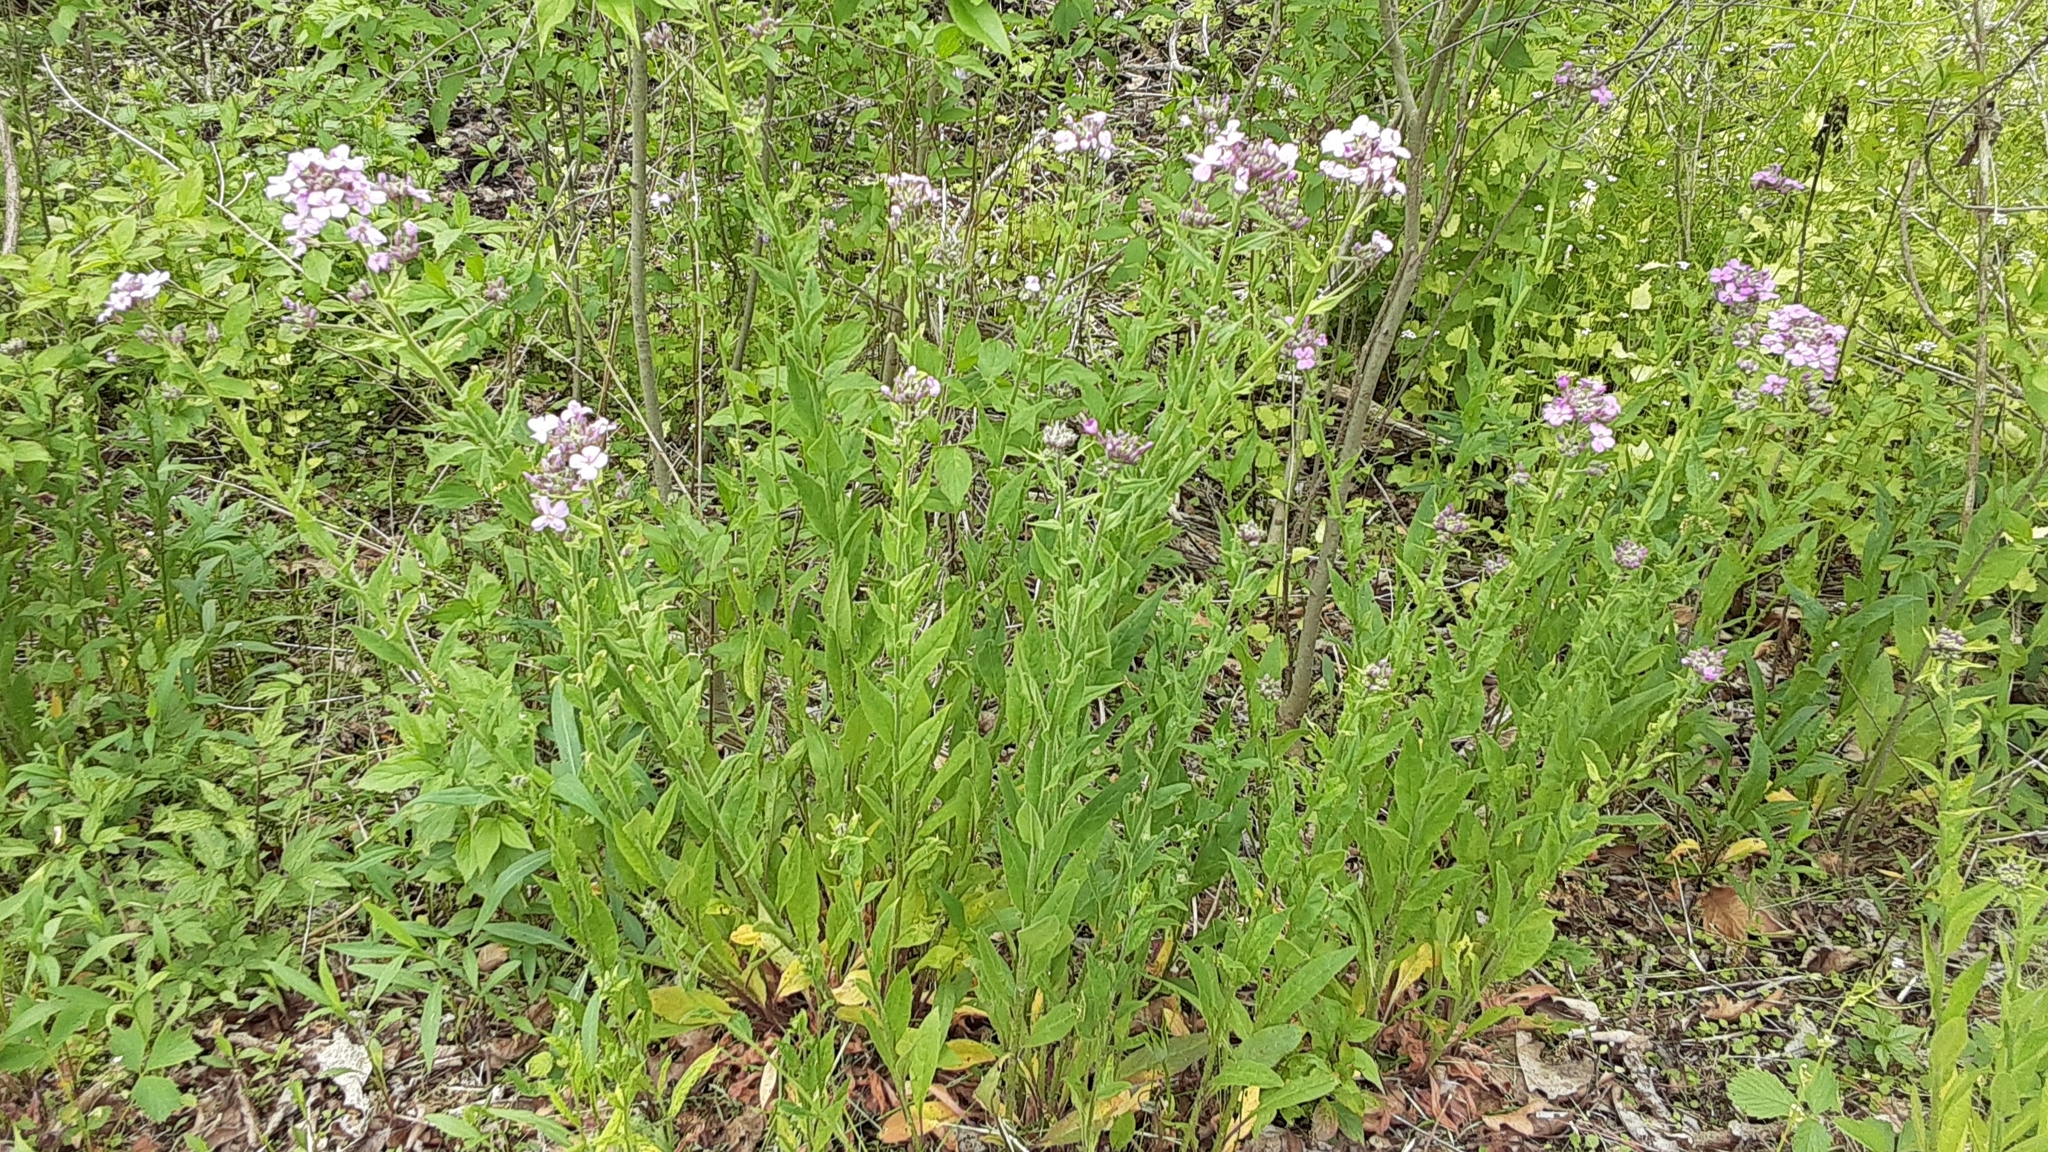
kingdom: Plantae
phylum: Tracheophyta
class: Magnoliopsida
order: Brassicales
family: Brassicaceae
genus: Hesperis
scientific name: Hesperis matronalis
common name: Dame's-violet
